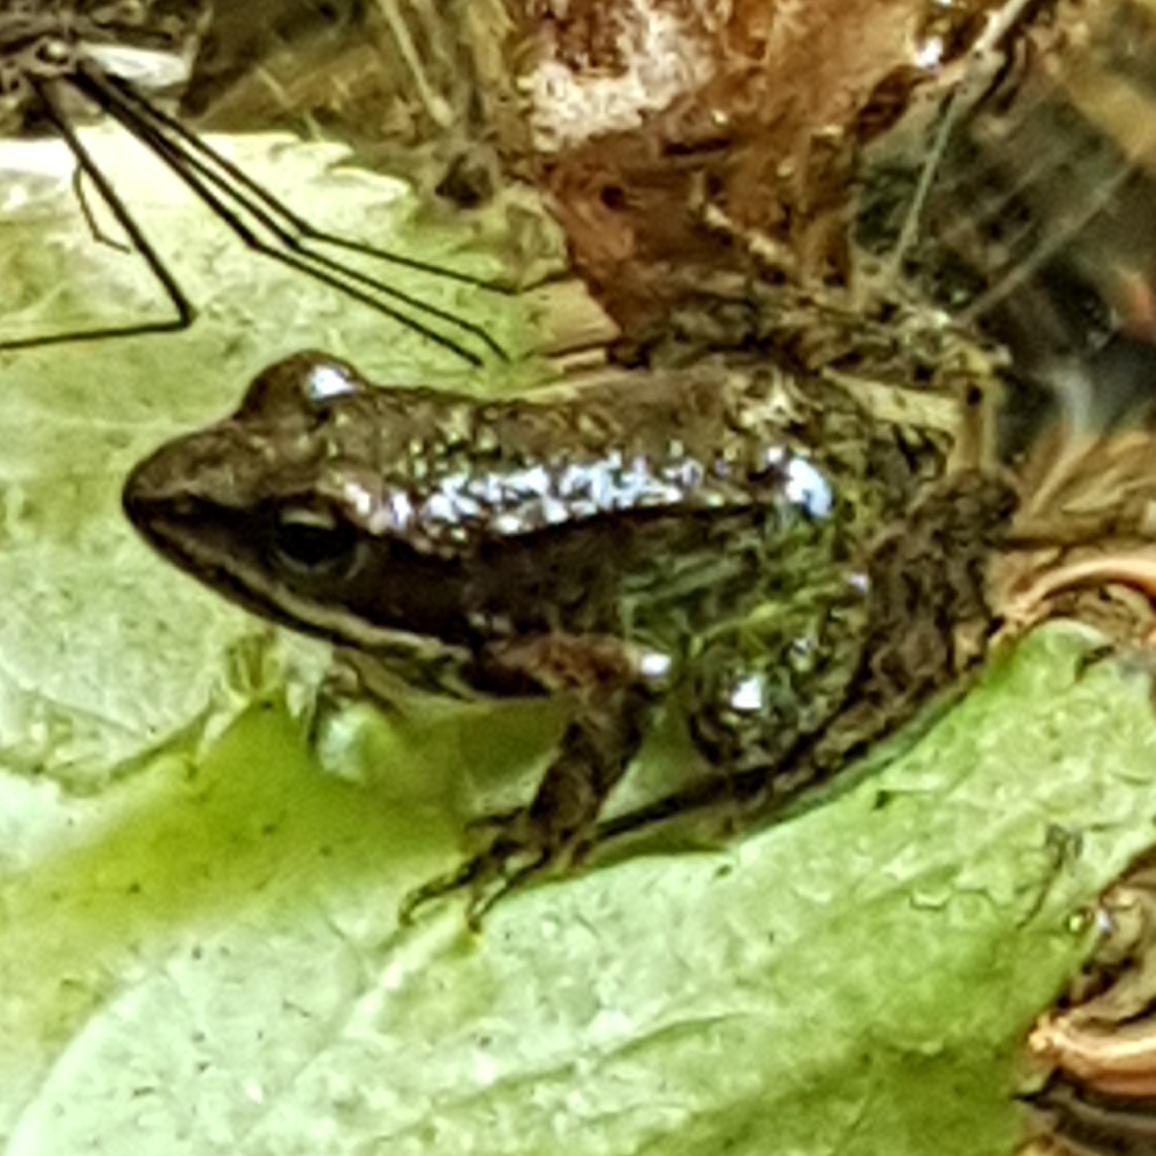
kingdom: Animalia
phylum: Chordata
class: Amphibia
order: Anura
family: Ranidae
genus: Rana
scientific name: Rana iberica
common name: Iberian frog
